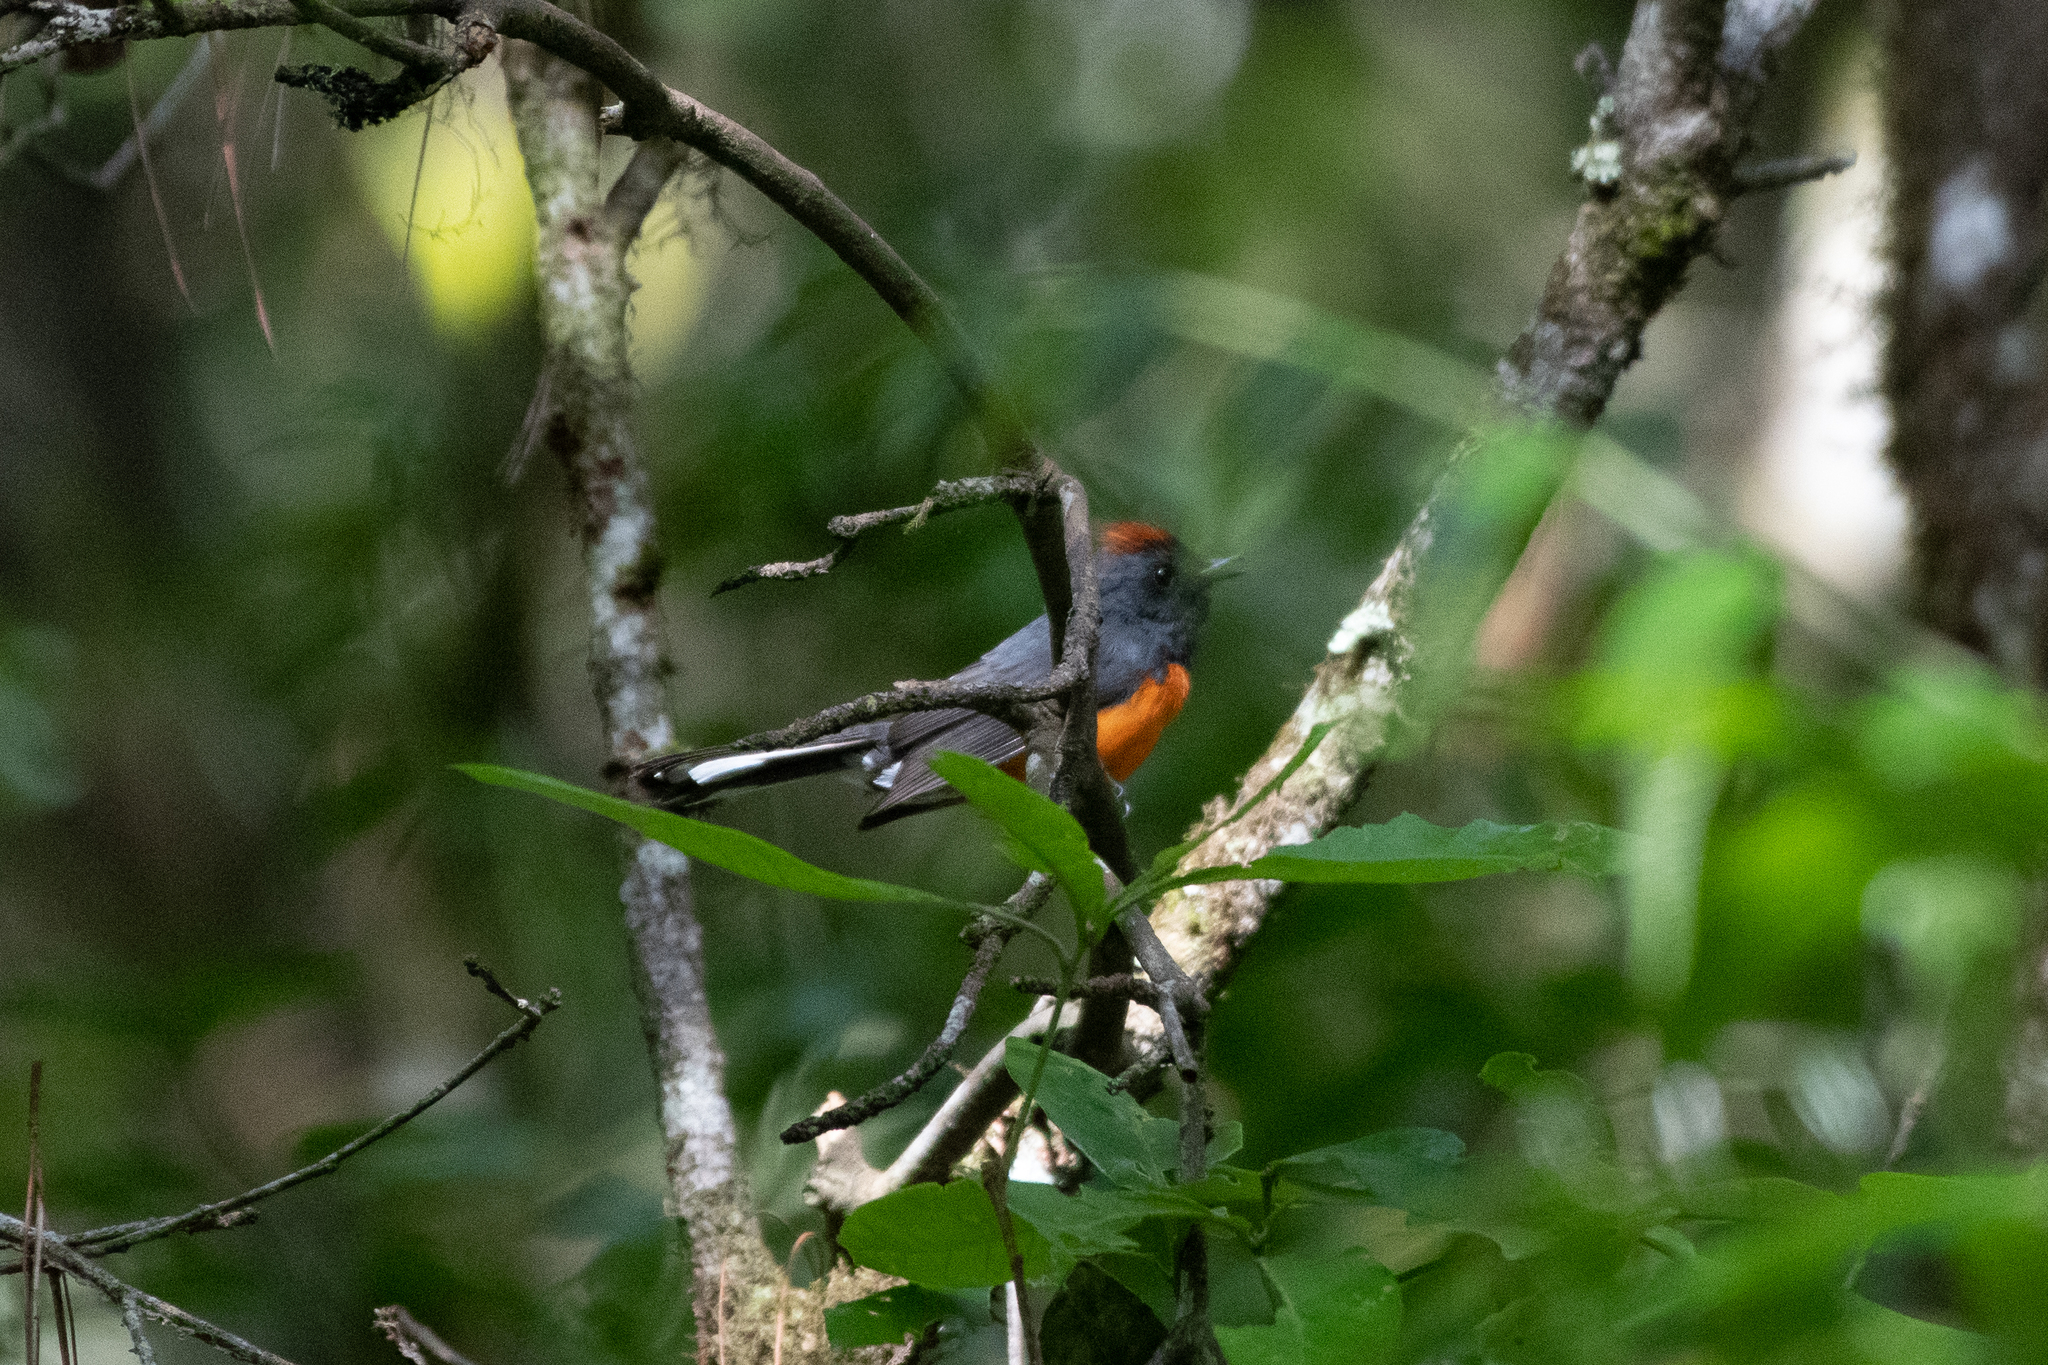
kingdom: Animalia
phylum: Chordata
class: Aves
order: Passeriformes
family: Parulidae
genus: Myioborus
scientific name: Myioborus miniatus
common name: Slate-throated redstart
